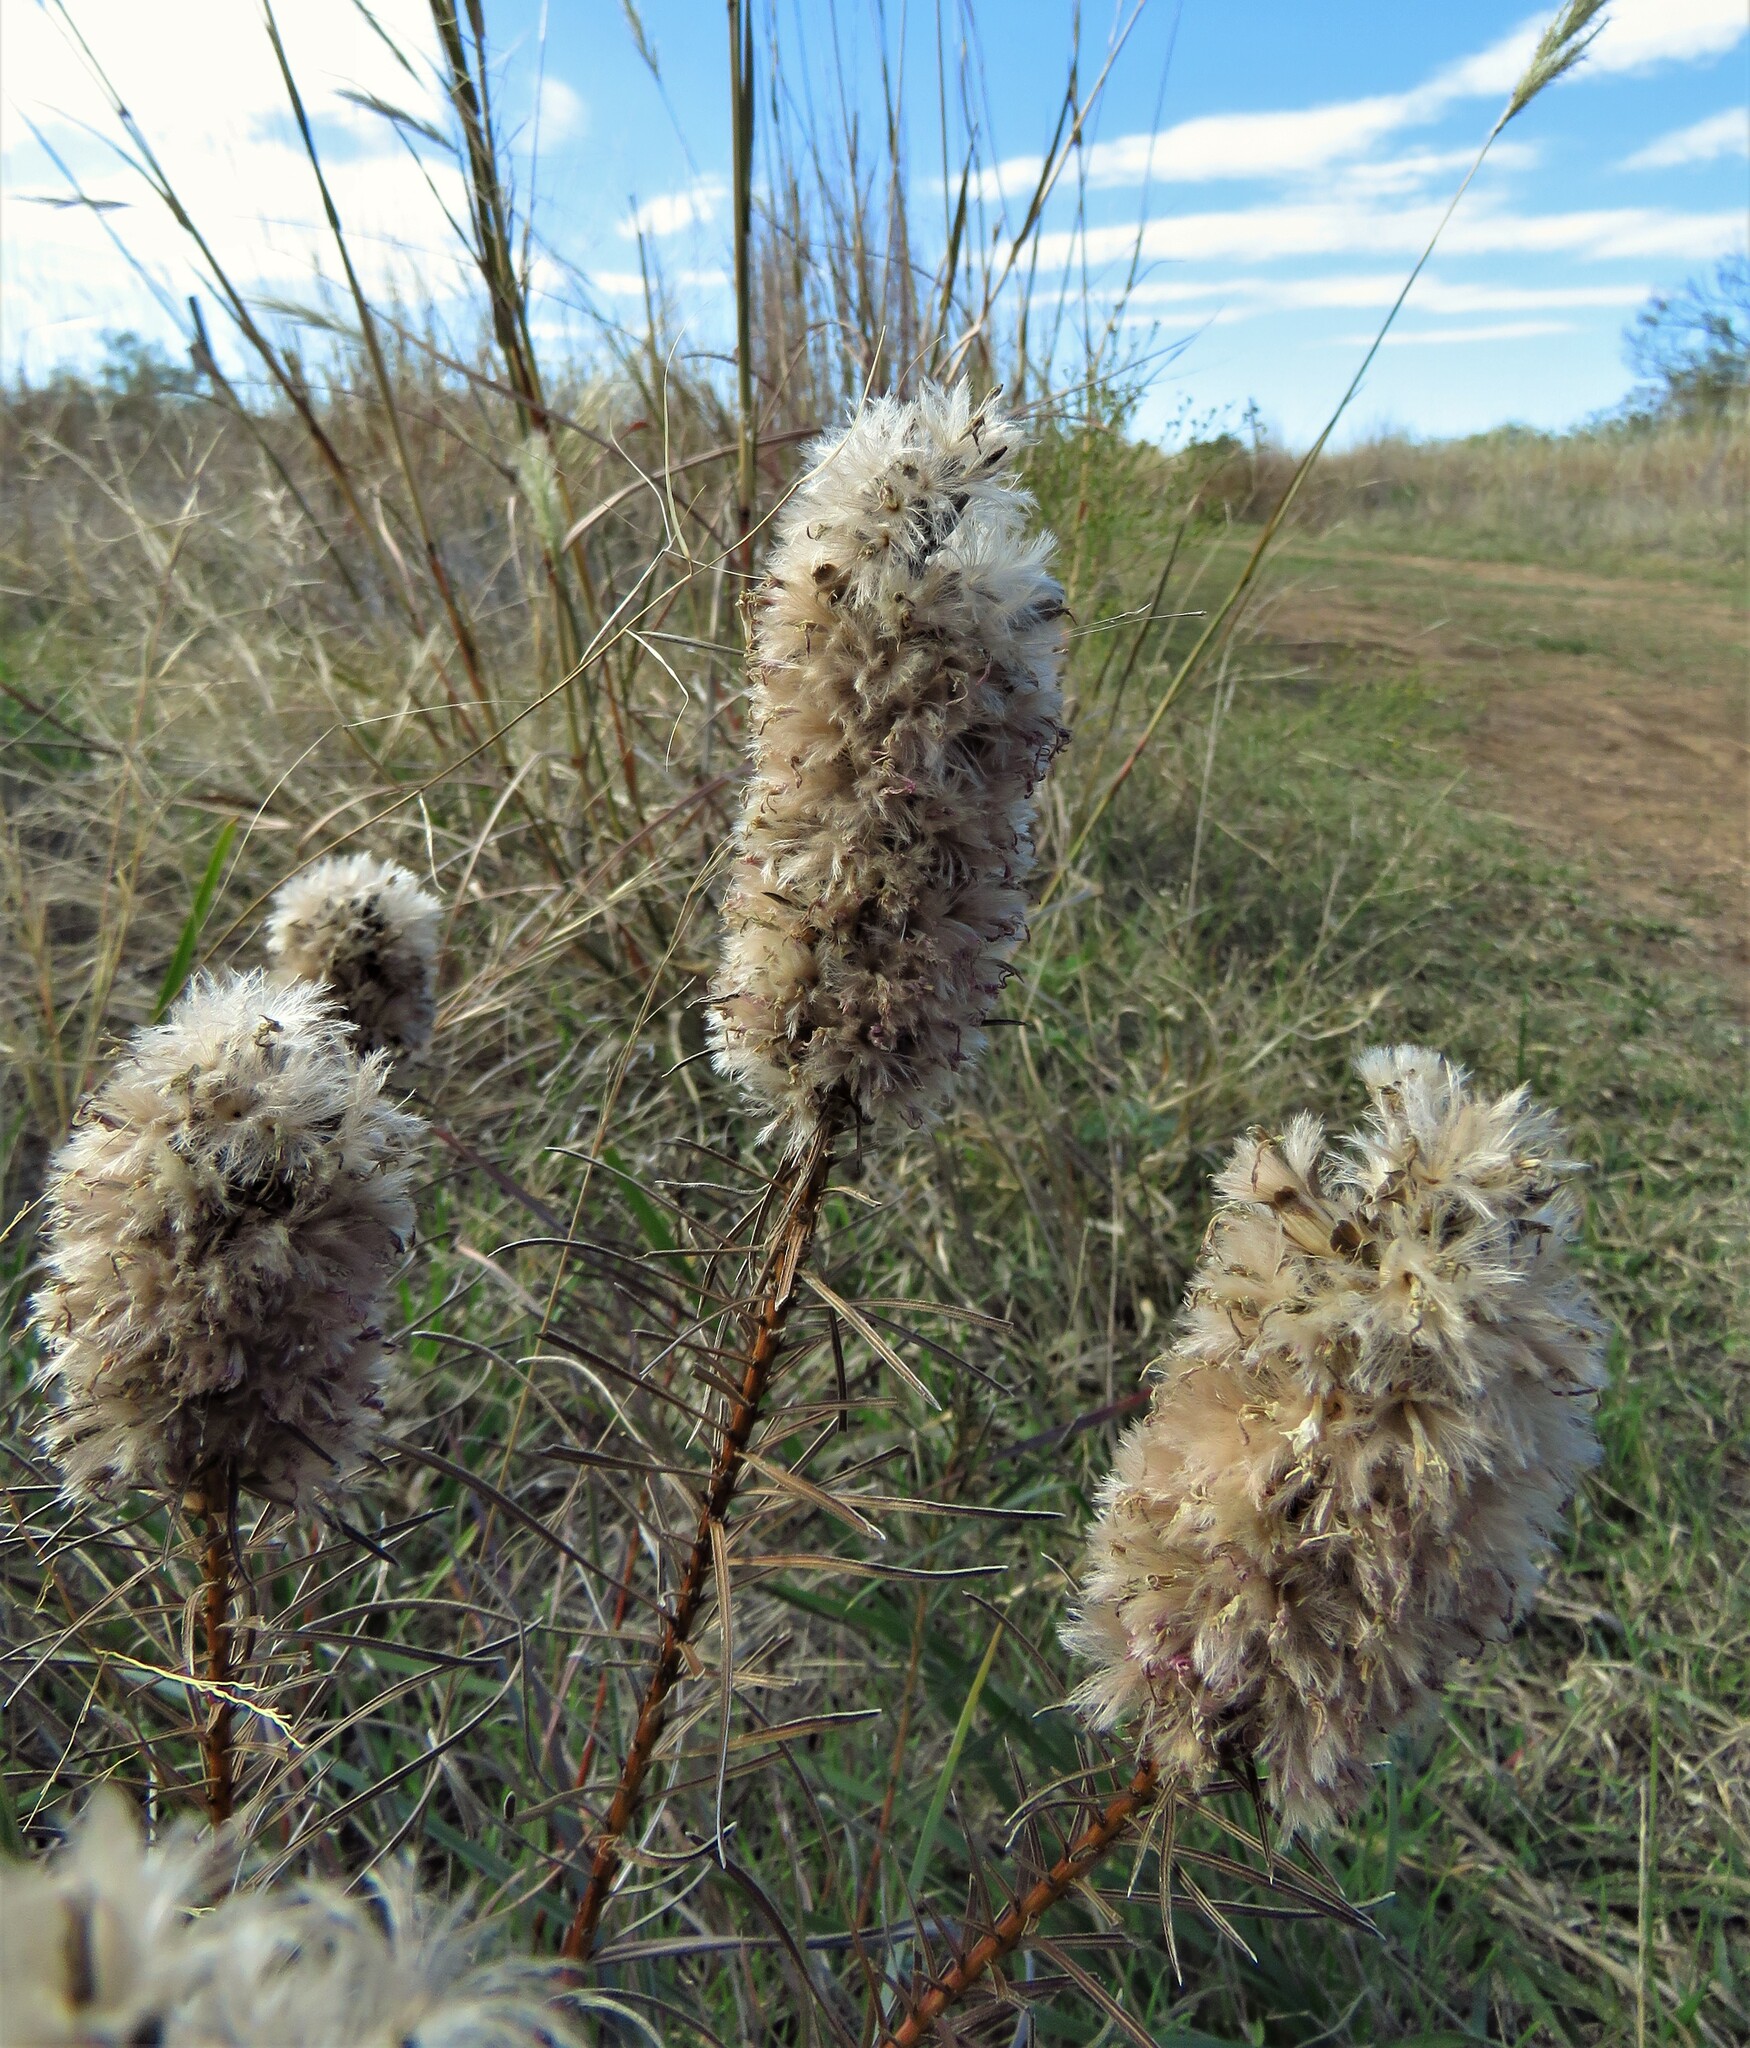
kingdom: Plantae
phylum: Tracheophyta
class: Magnoliopsida
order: Asterales
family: Asteraceae
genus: Liatris
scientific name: Liatris punctata
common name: Dotted gayfeather
